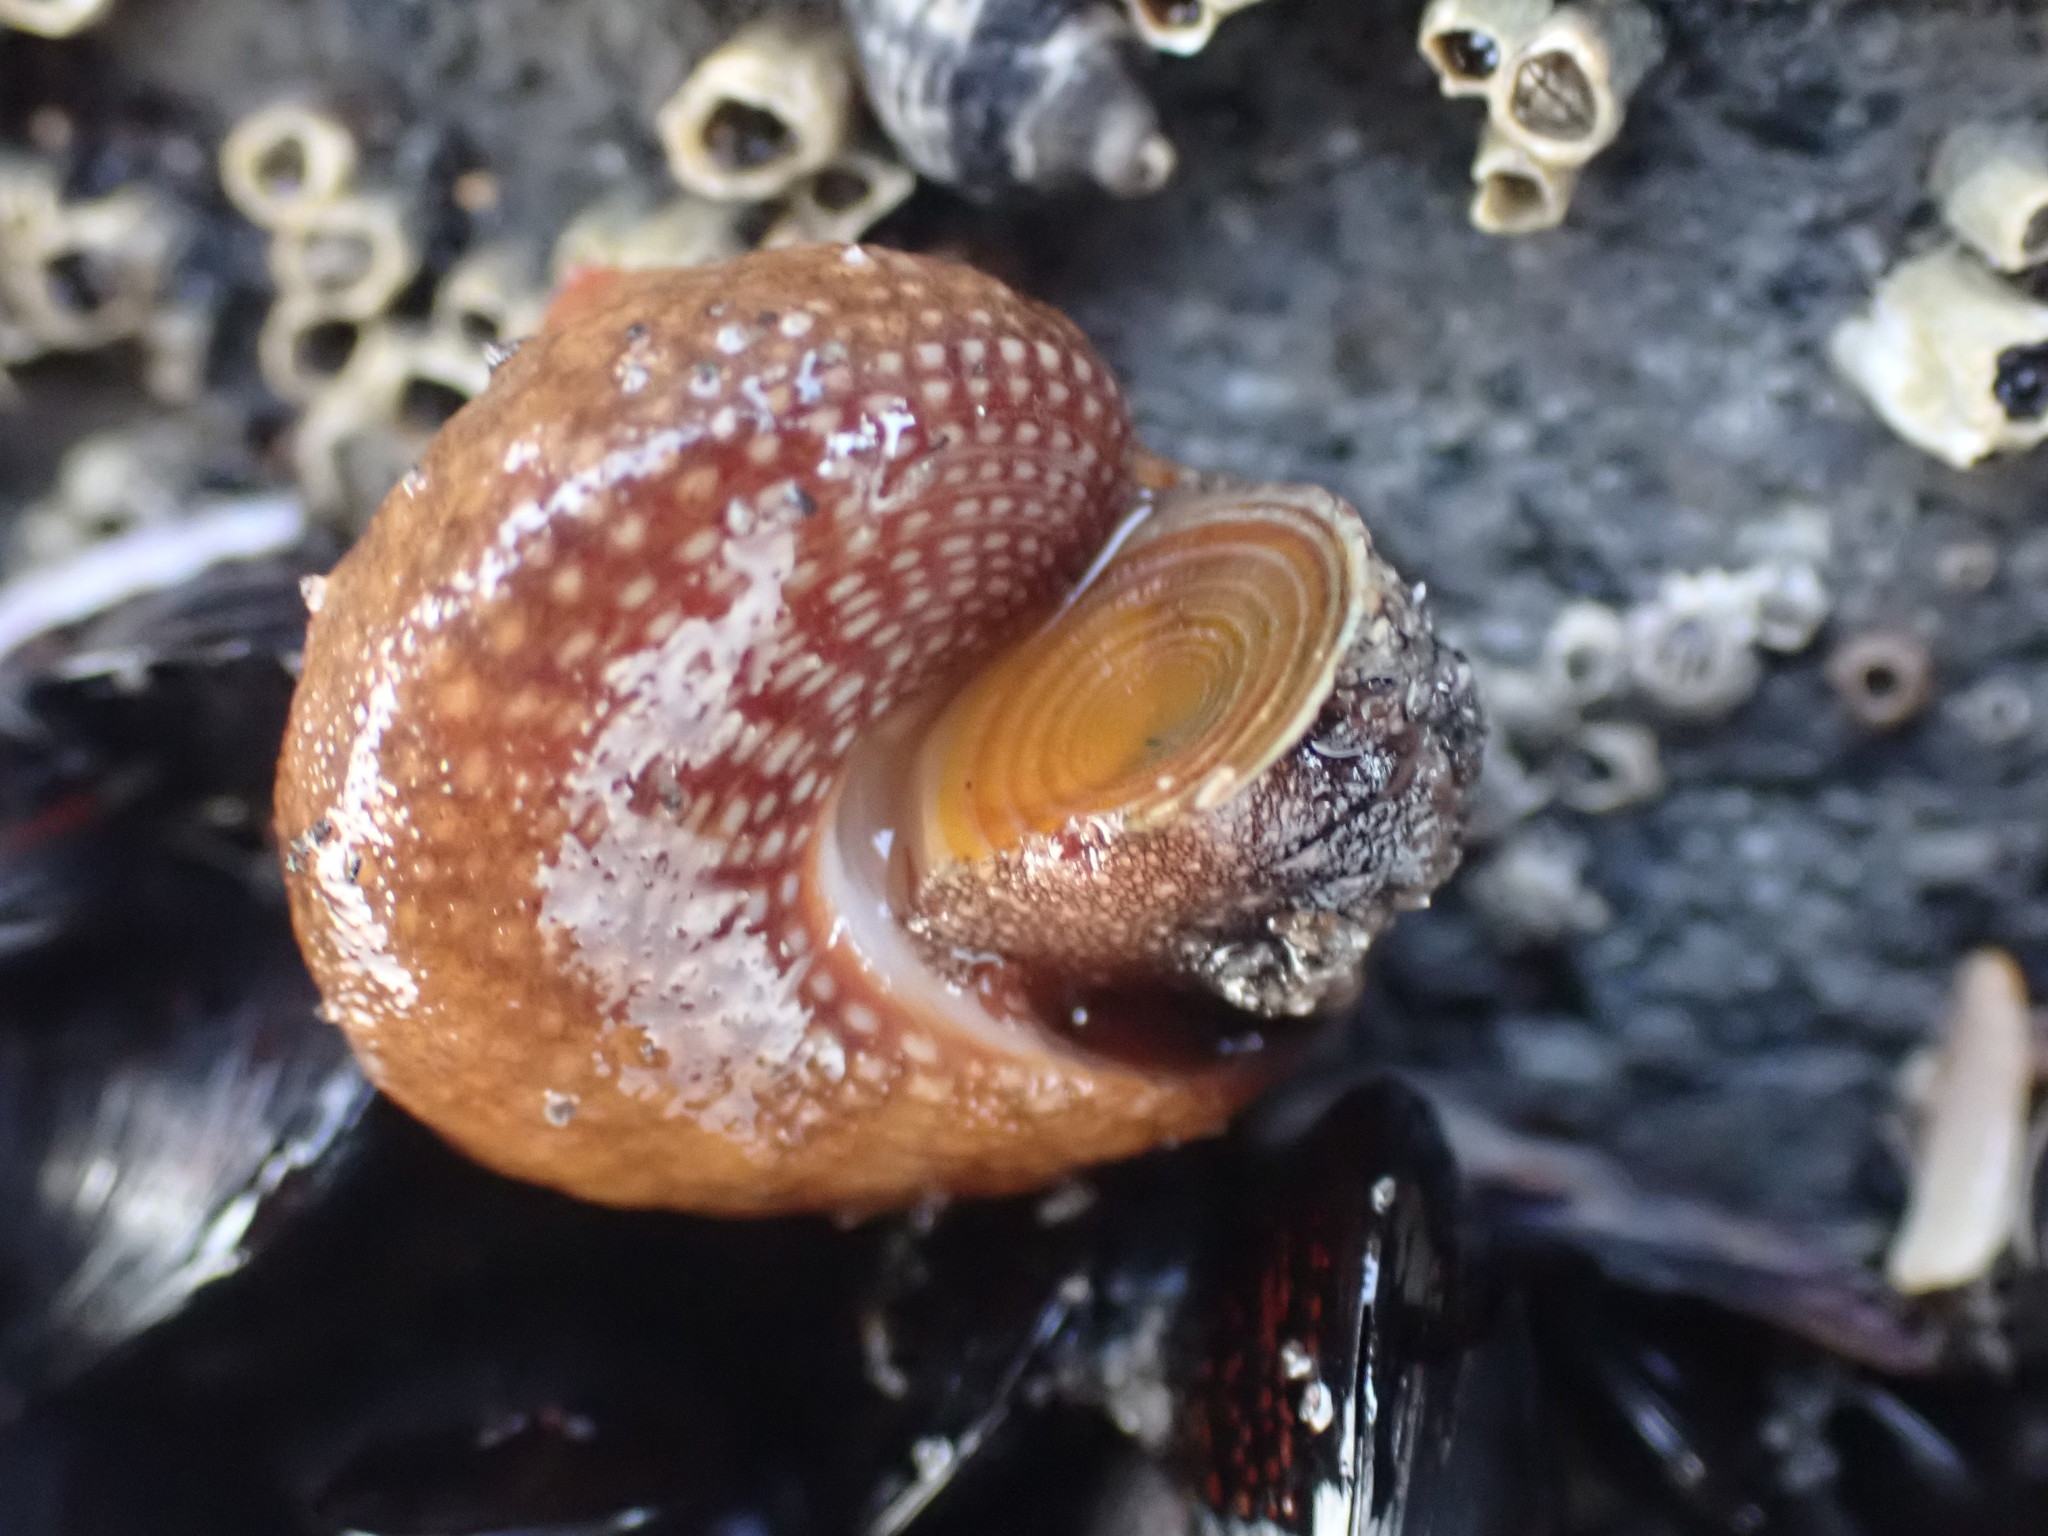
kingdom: Animalia
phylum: Mollusca
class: Gastropoda
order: Trochida
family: Calliostomatidae
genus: Maurea
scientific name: Maurea punctulata
